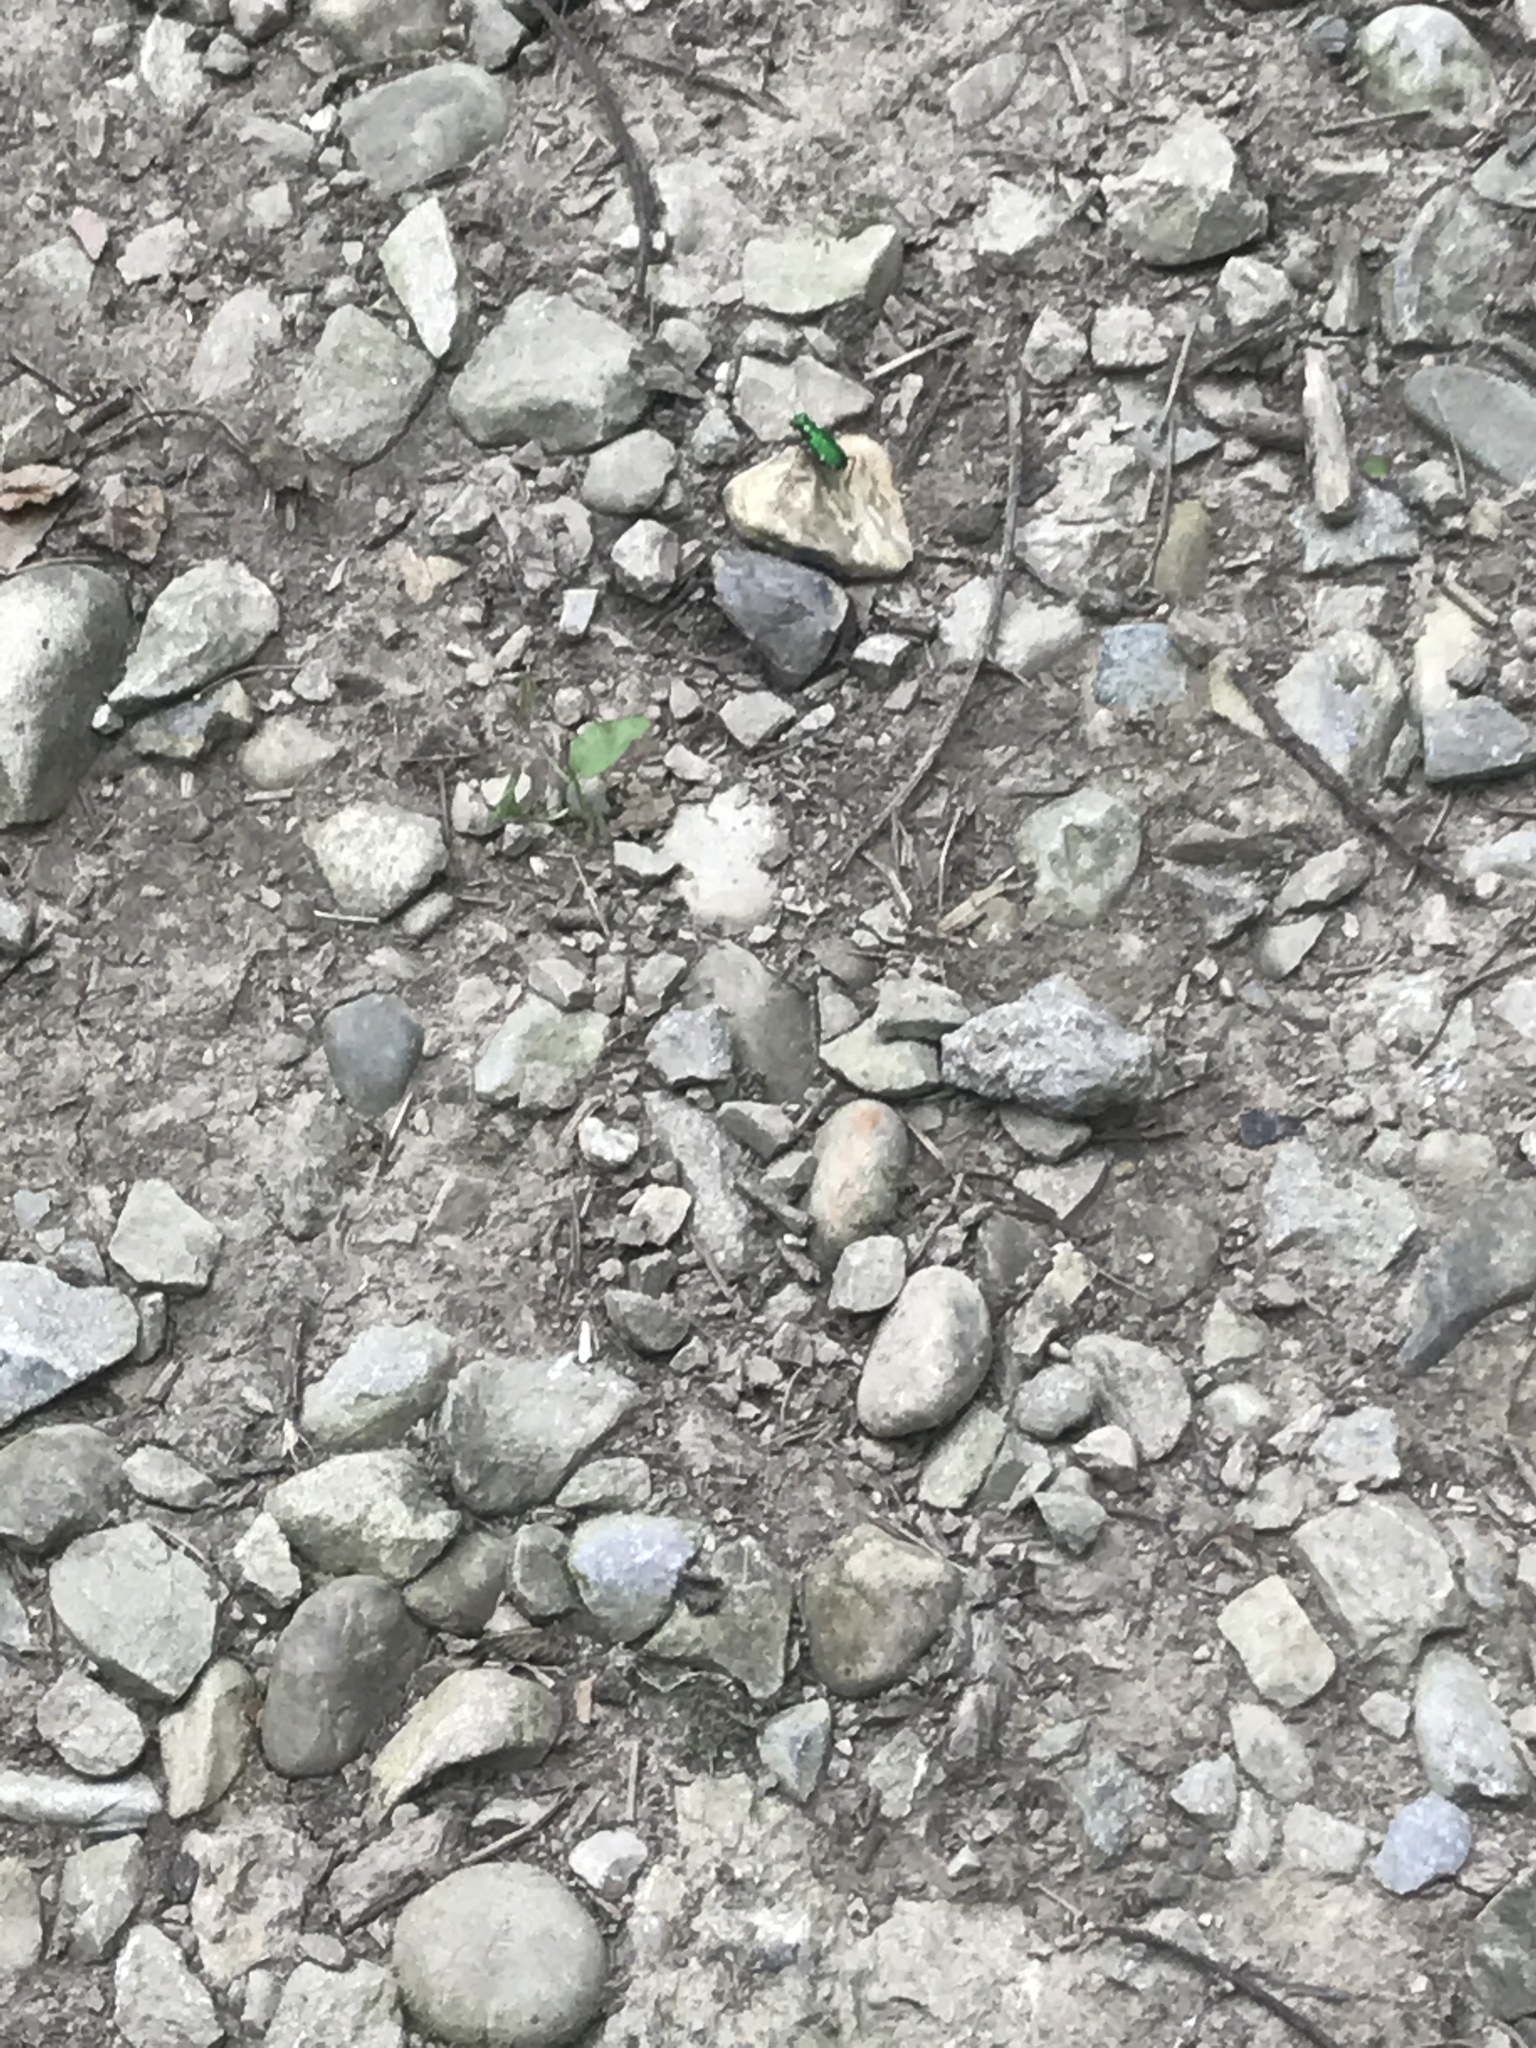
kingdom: Animalia
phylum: Arthropoda
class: Insecta
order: Coleoptera
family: Carabidae
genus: Cicindela
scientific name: Cicindela sexguttata
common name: Six-spotted tiger beetle
